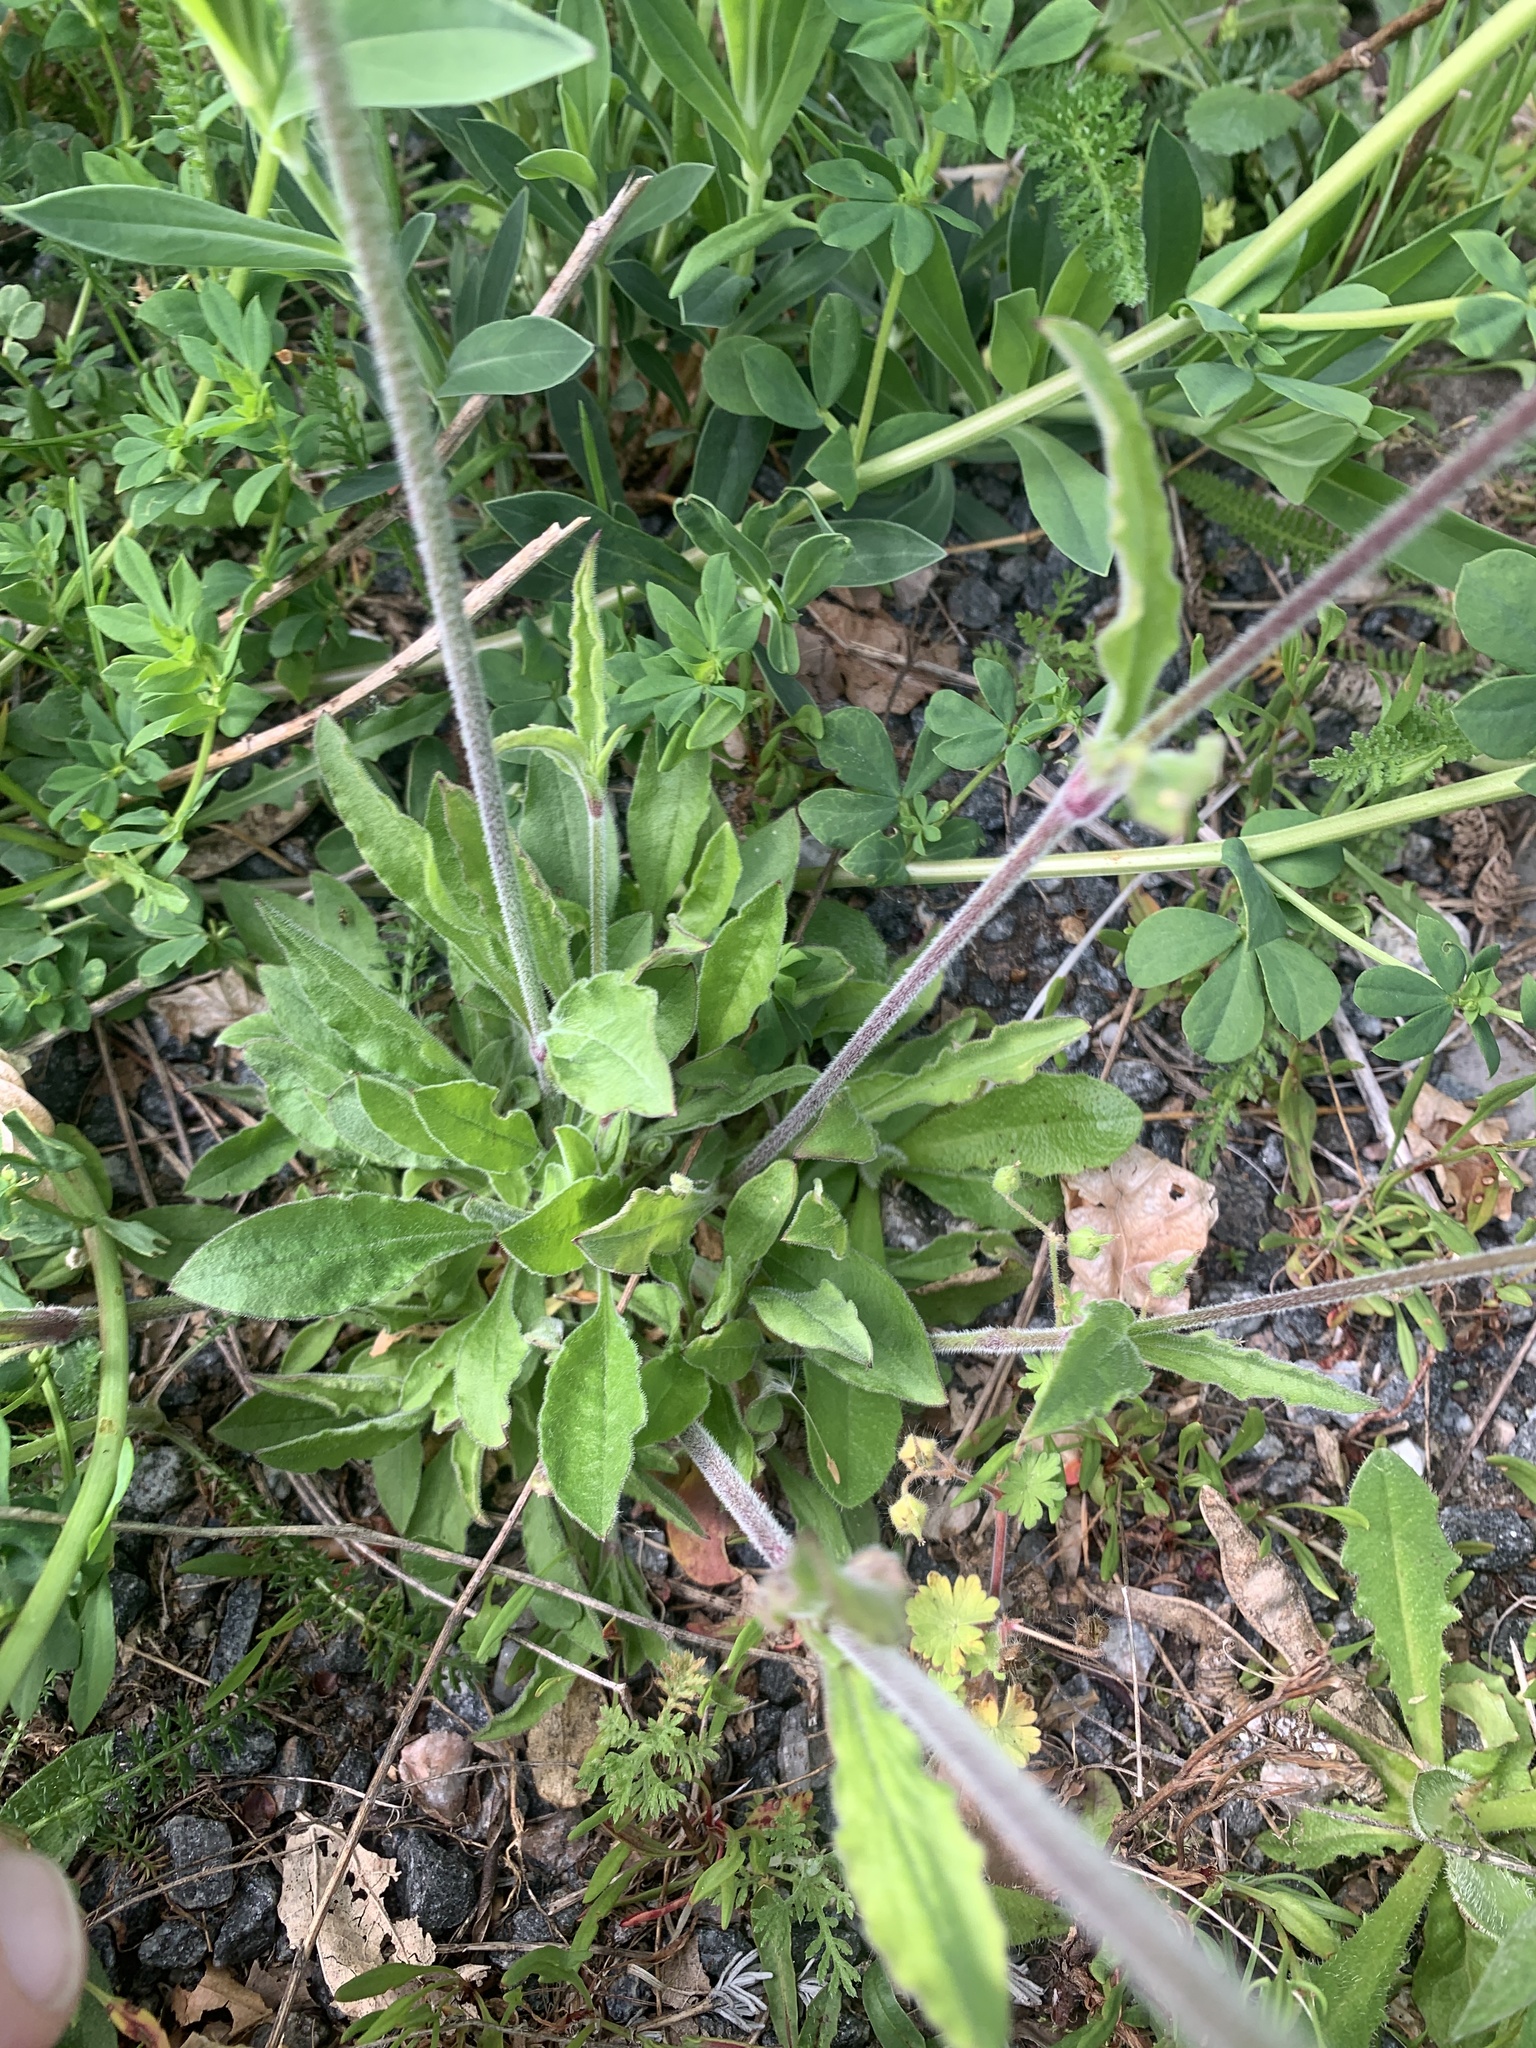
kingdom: Plantae
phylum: Tracheophyta
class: Magnoliopsida
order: Caryophyllales
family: Caryophyllaceae
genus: Silene
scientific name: Silene nutans
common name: Nottingham catchfly
